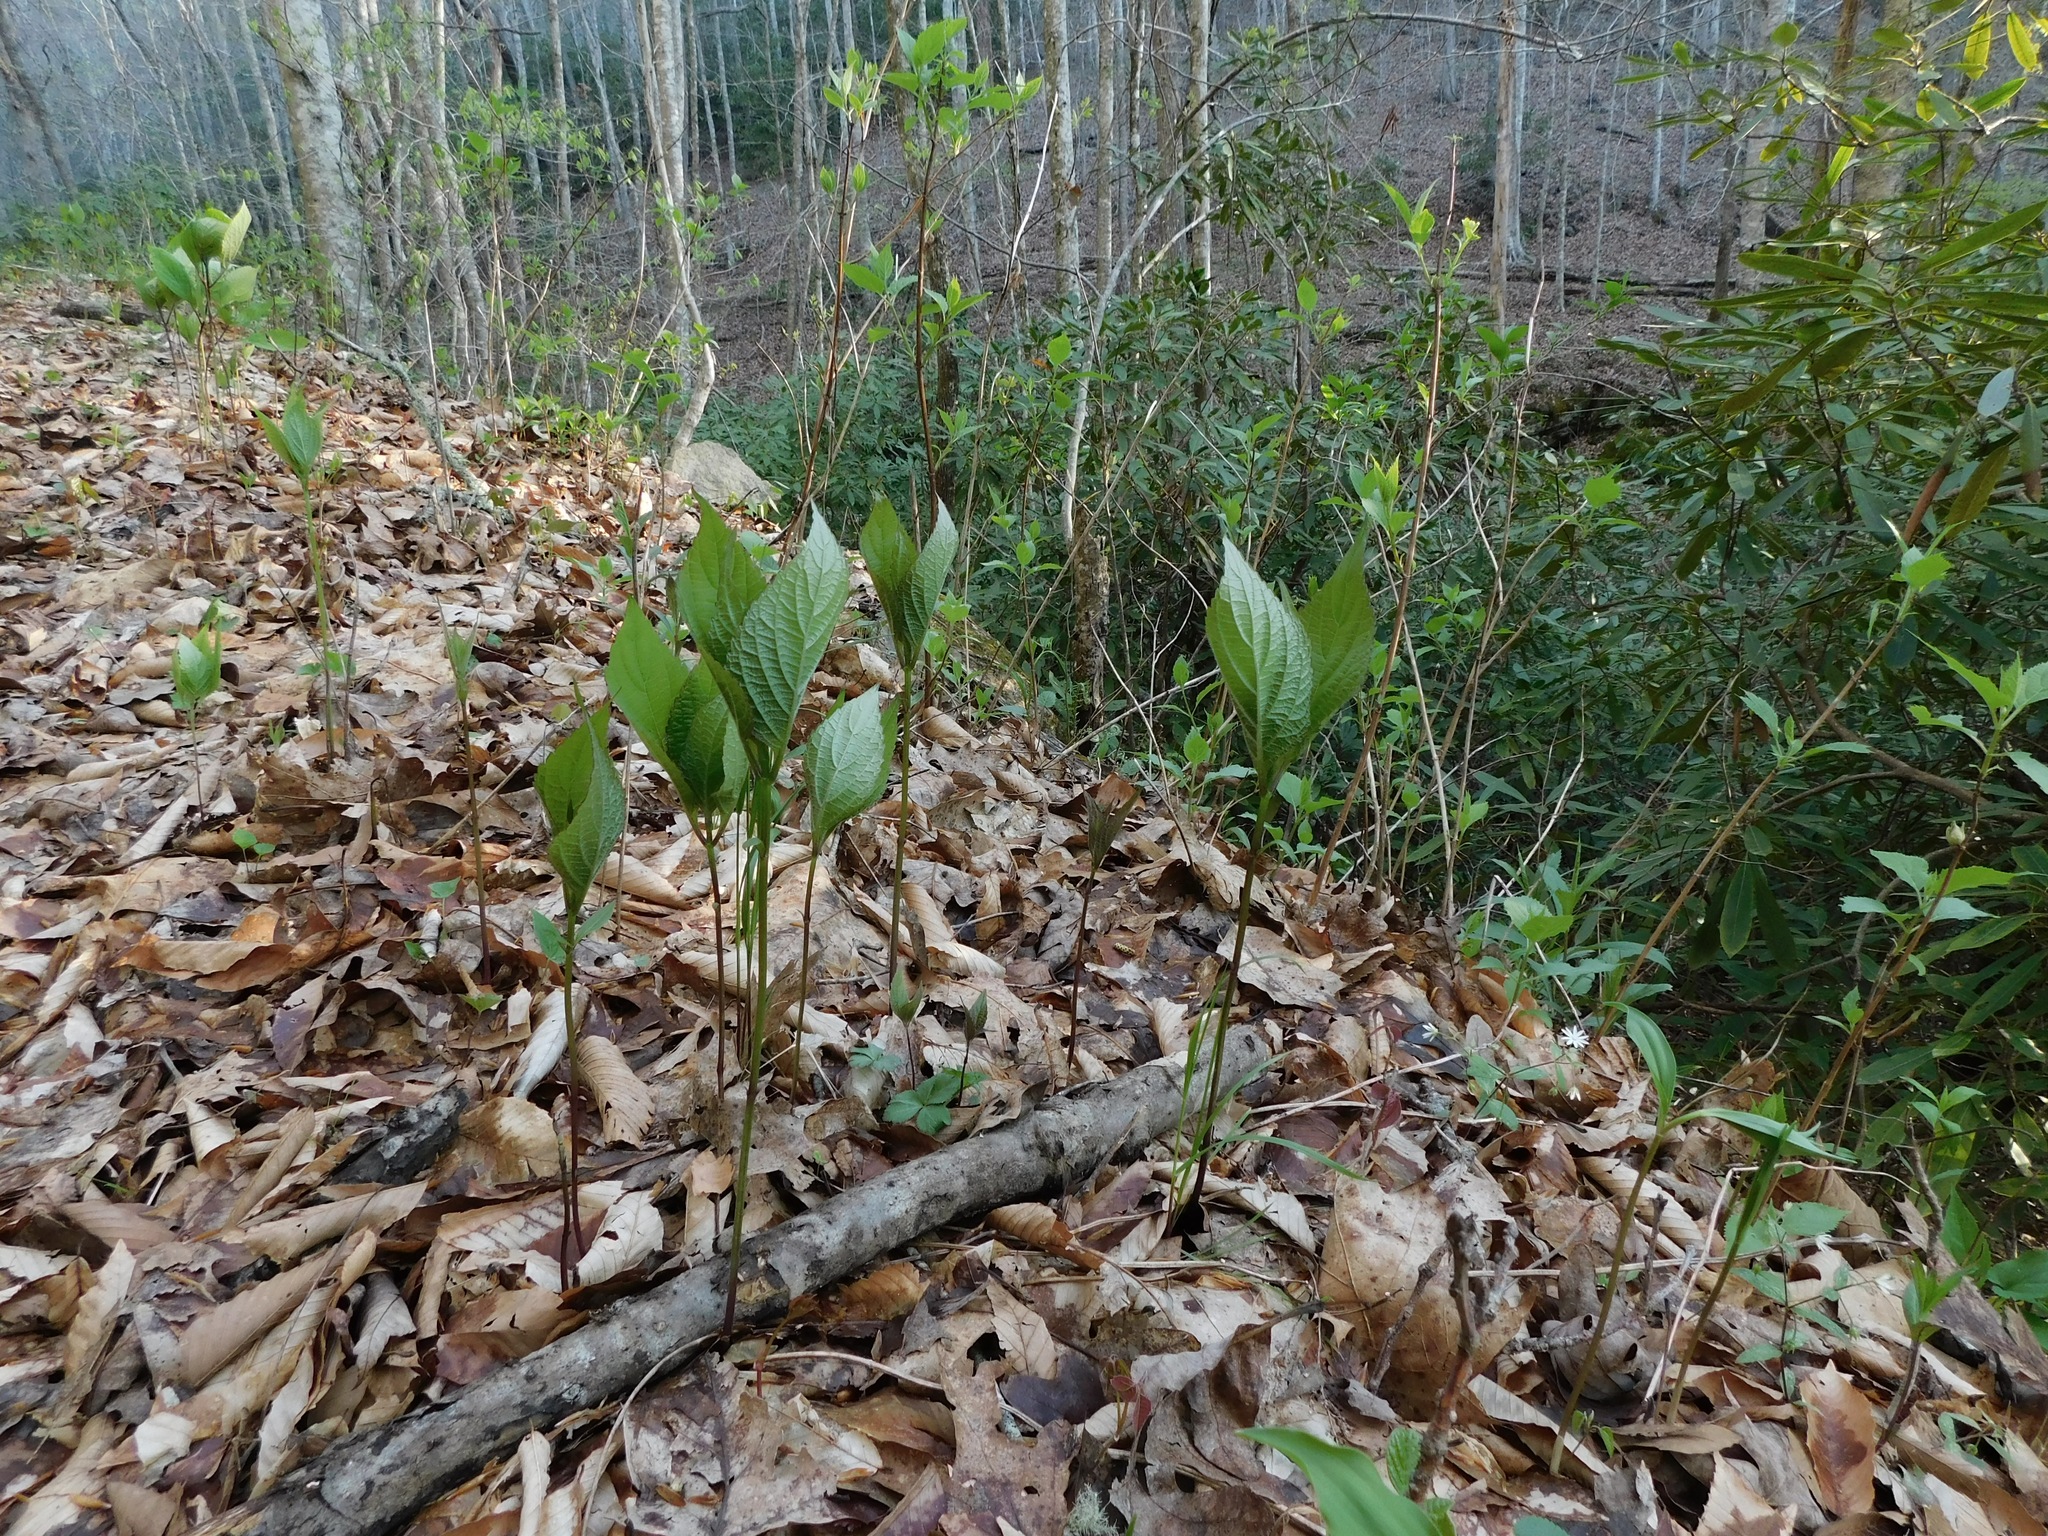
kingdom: Plantae
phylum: Tracheophyta
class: Magnoliopsida
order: Lamiales
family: Lamiaceae
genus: Collinsonia
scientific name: Collinsonia canadensis
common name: Northern horsebalm
